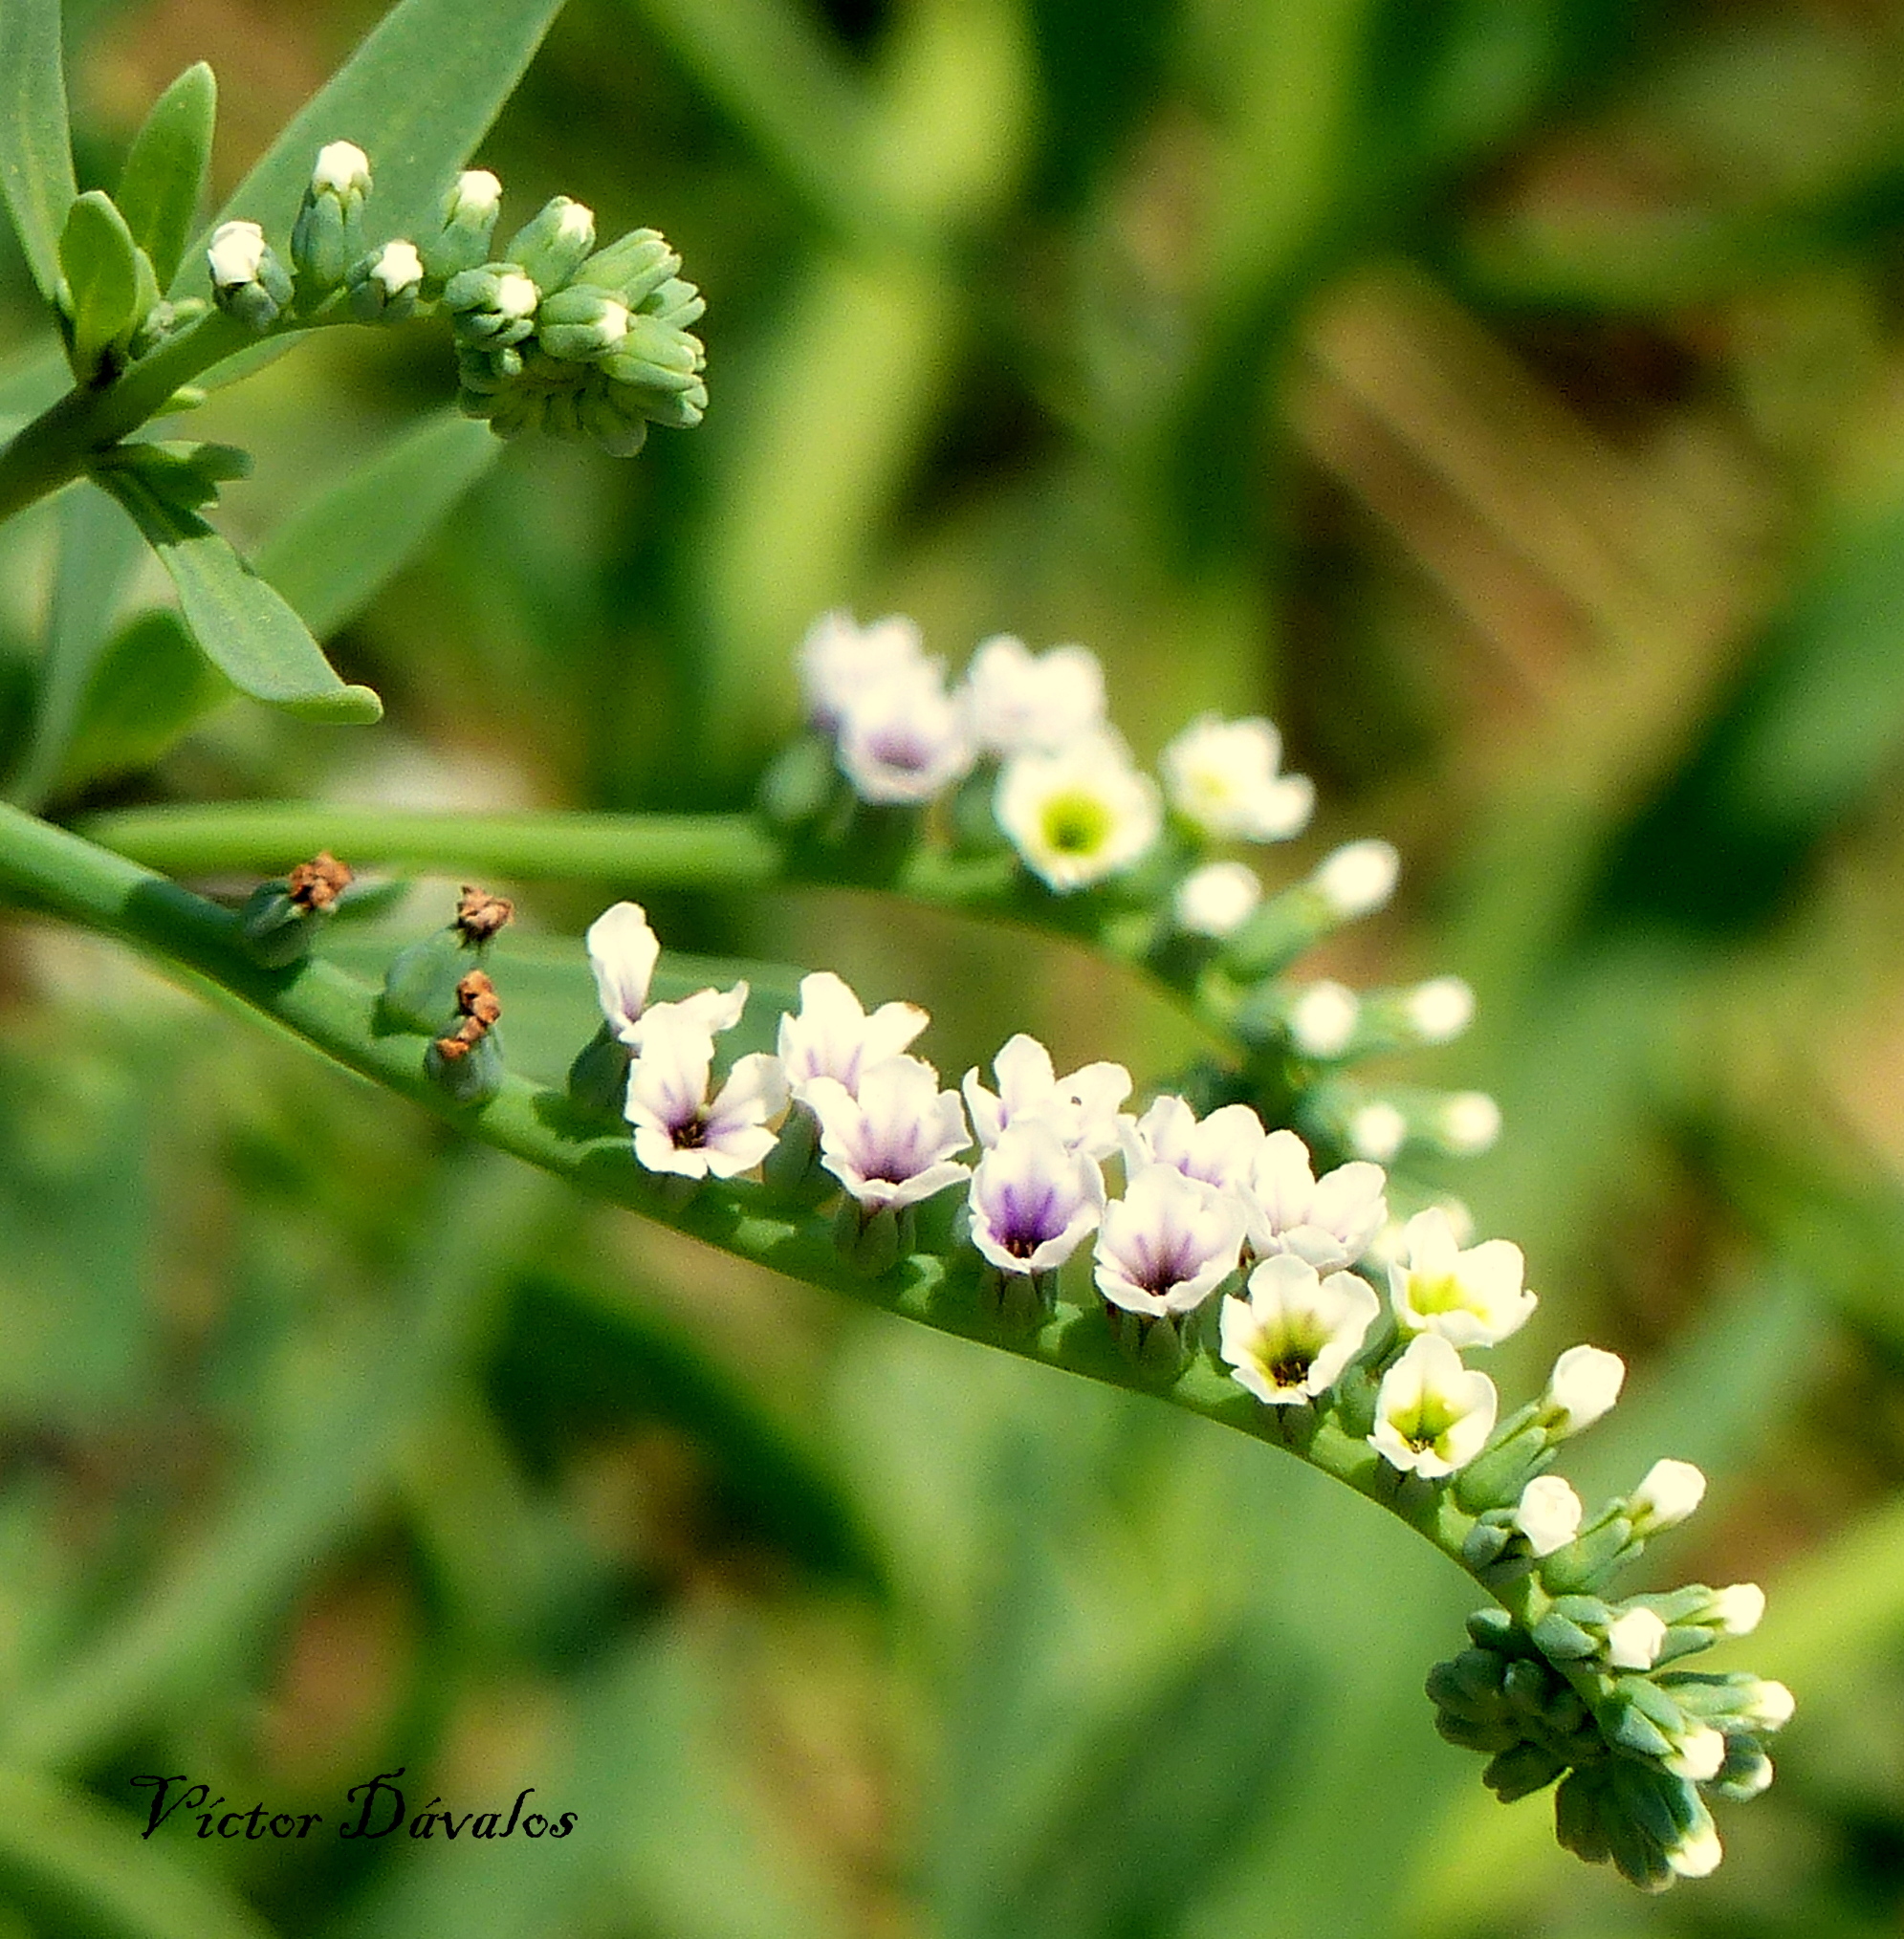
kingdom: Plantae
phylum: Tracheophyta
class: Magnoliopsida
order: Boraginales
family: Heliotropiaceae
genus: Heliotropium
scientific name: Heliotropium curassavicum
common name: Seaside heliotrope
